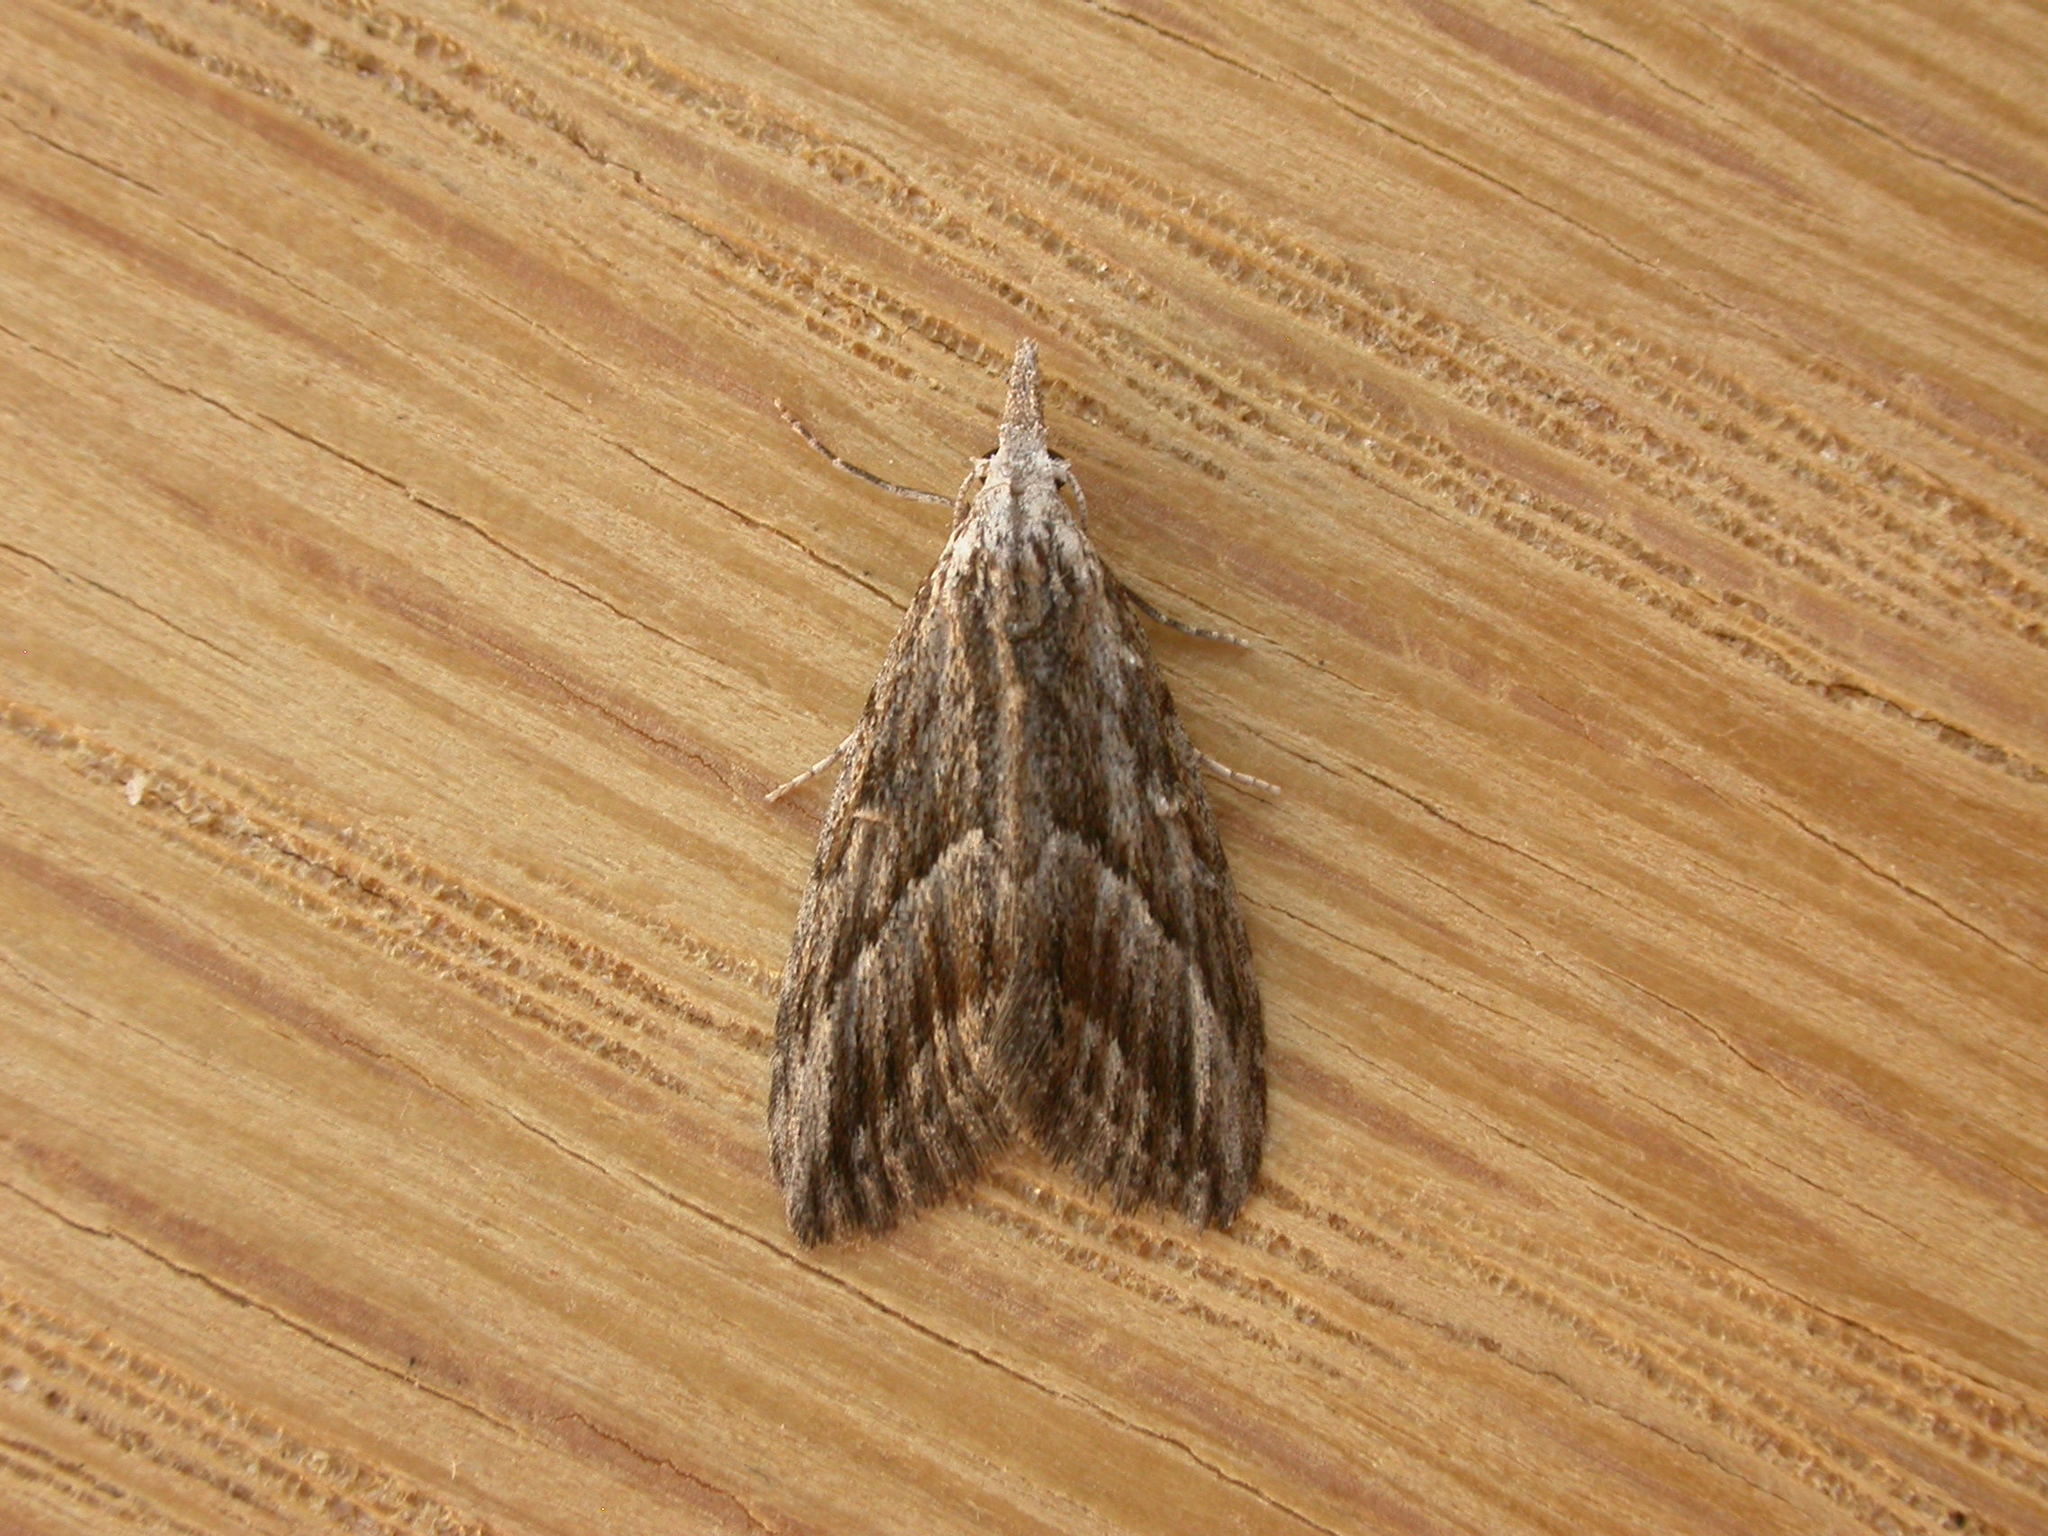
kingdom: Animalia
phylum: Arthropoda
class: Insecta
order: Lepidoptera
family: Nolidae
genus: Nola
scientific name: Nola phaeogramma
